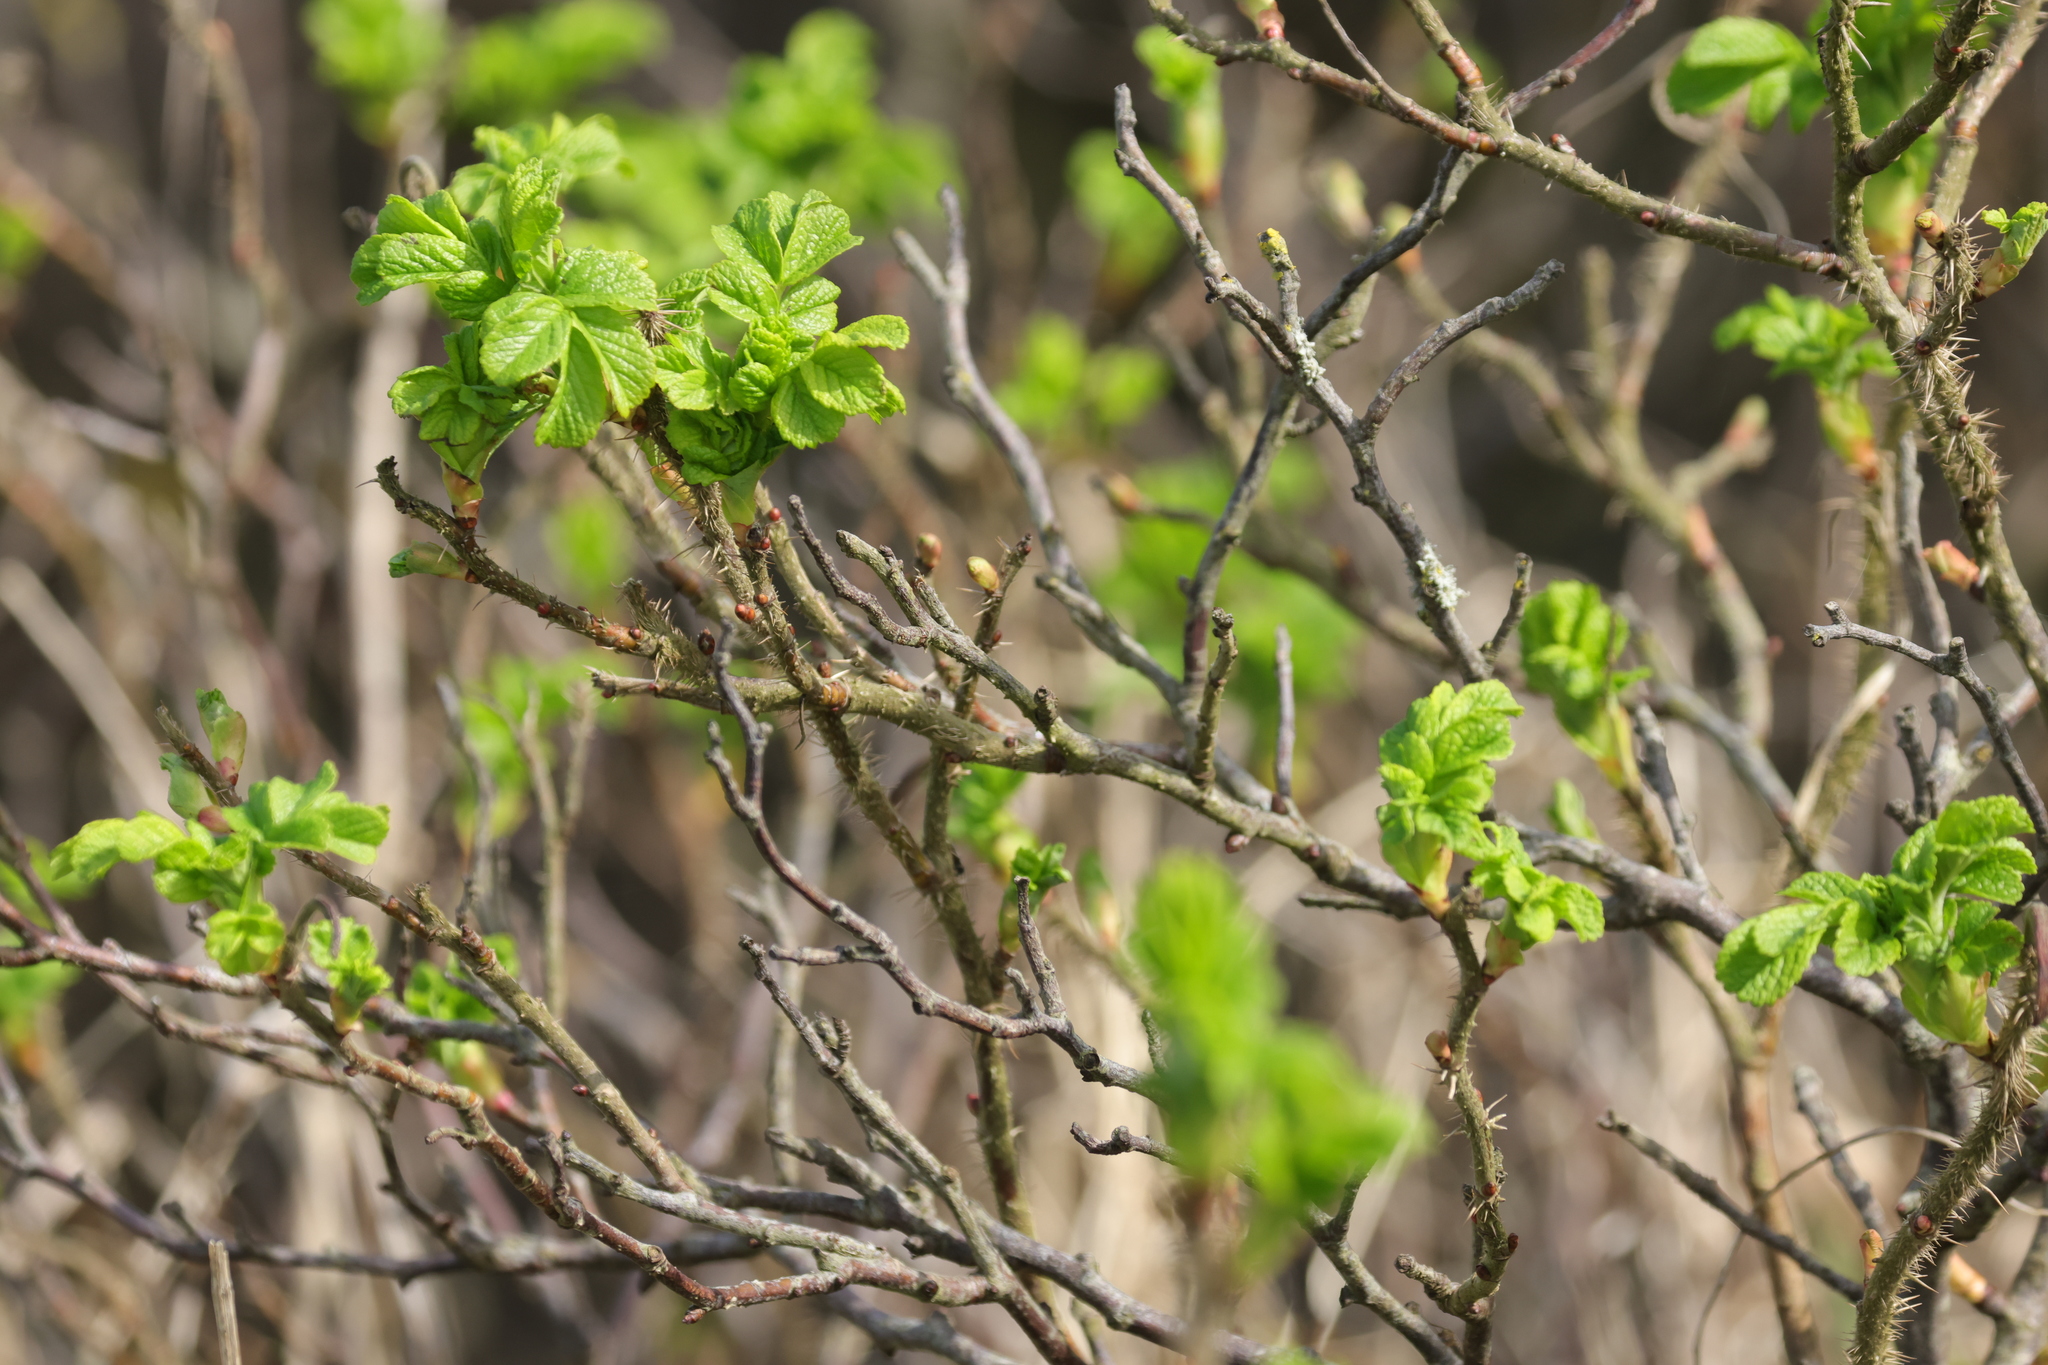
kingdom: Plantae
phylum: Tracheophyta
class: Magnoliopsida
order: Rosales
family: Rosaceae
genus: Rosa
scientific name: Rosa rugosa
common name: Japanese rose
